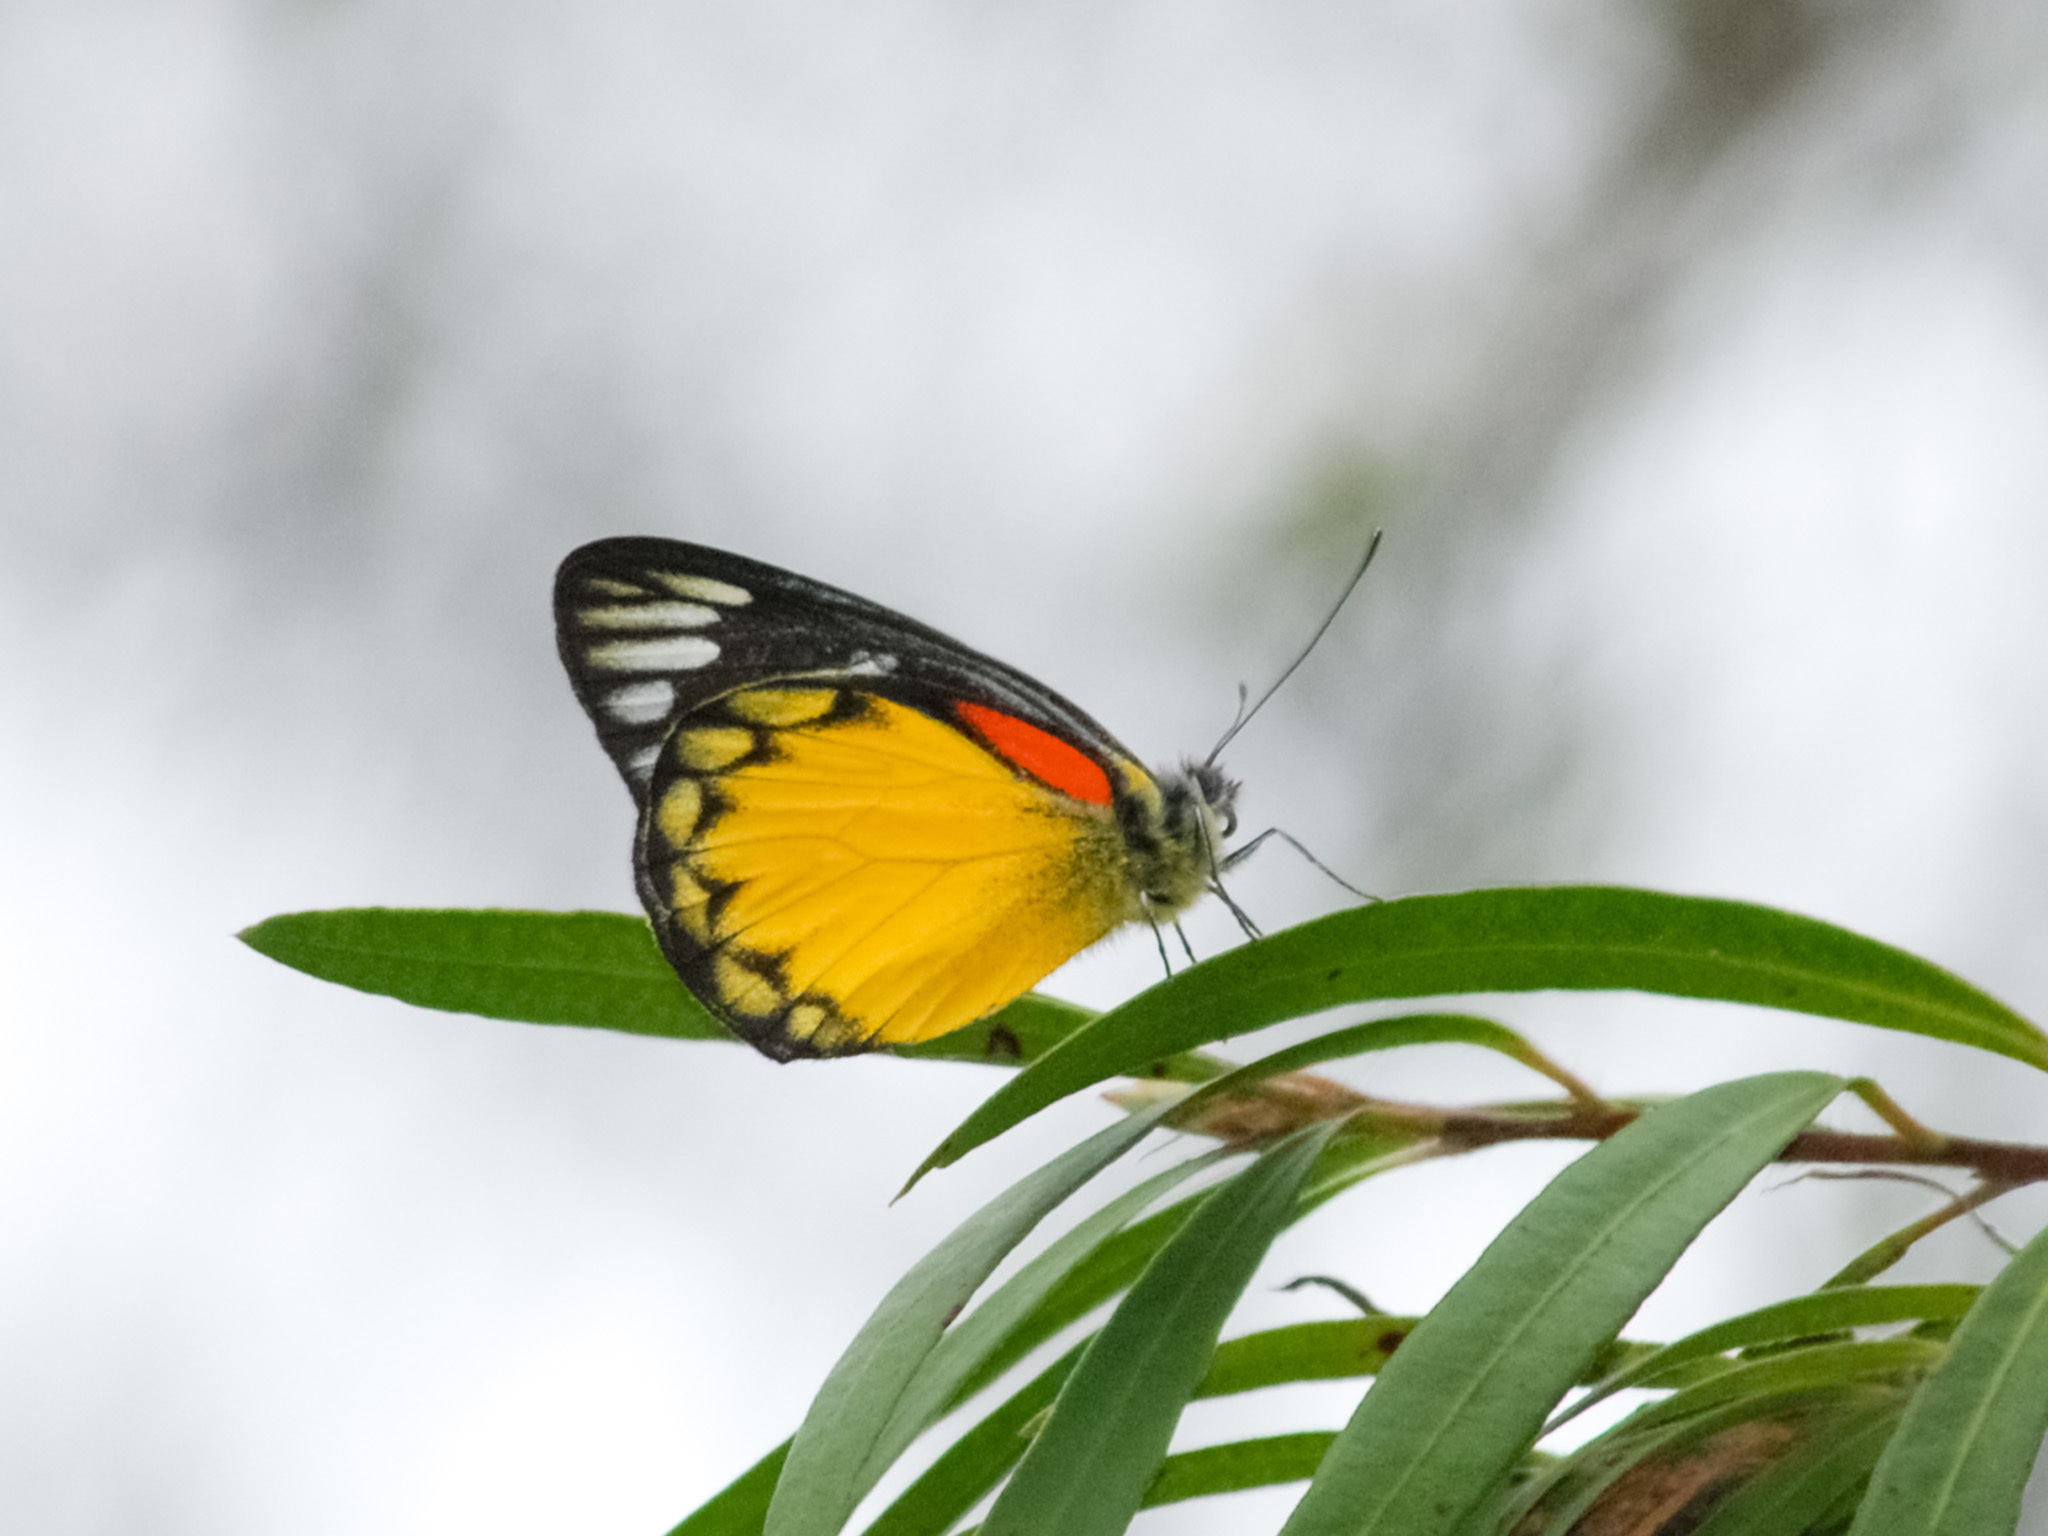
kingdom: Animalia
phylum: Arthropoda
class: Insecta
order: Lepidoptera
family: Pieridae
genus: Delias
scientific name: Delias descombesi
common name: Red-spot jezebel
